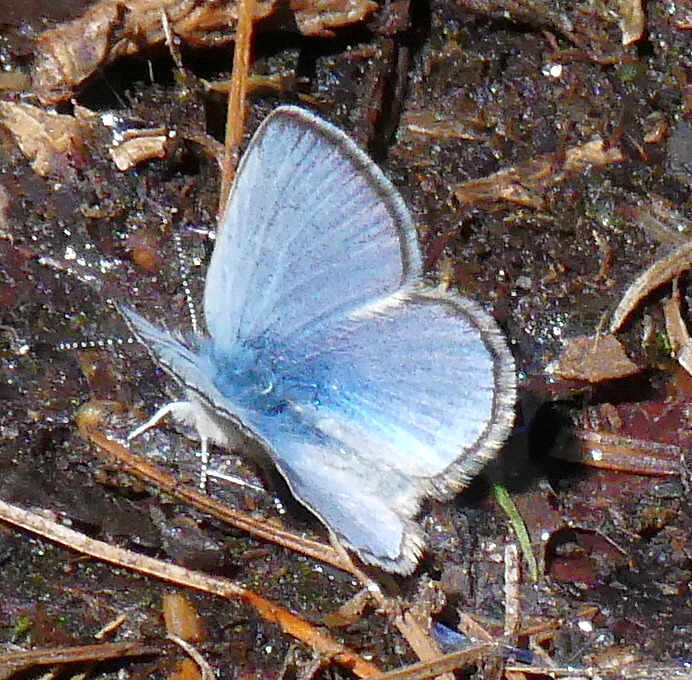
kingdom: Animalia
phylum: Arthropoda
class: Insecta
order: Lepidoptera
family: Lycaenidae
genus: Glaucopsyche
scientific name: Glaucopsyche lygdamus
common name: Silvery blue
